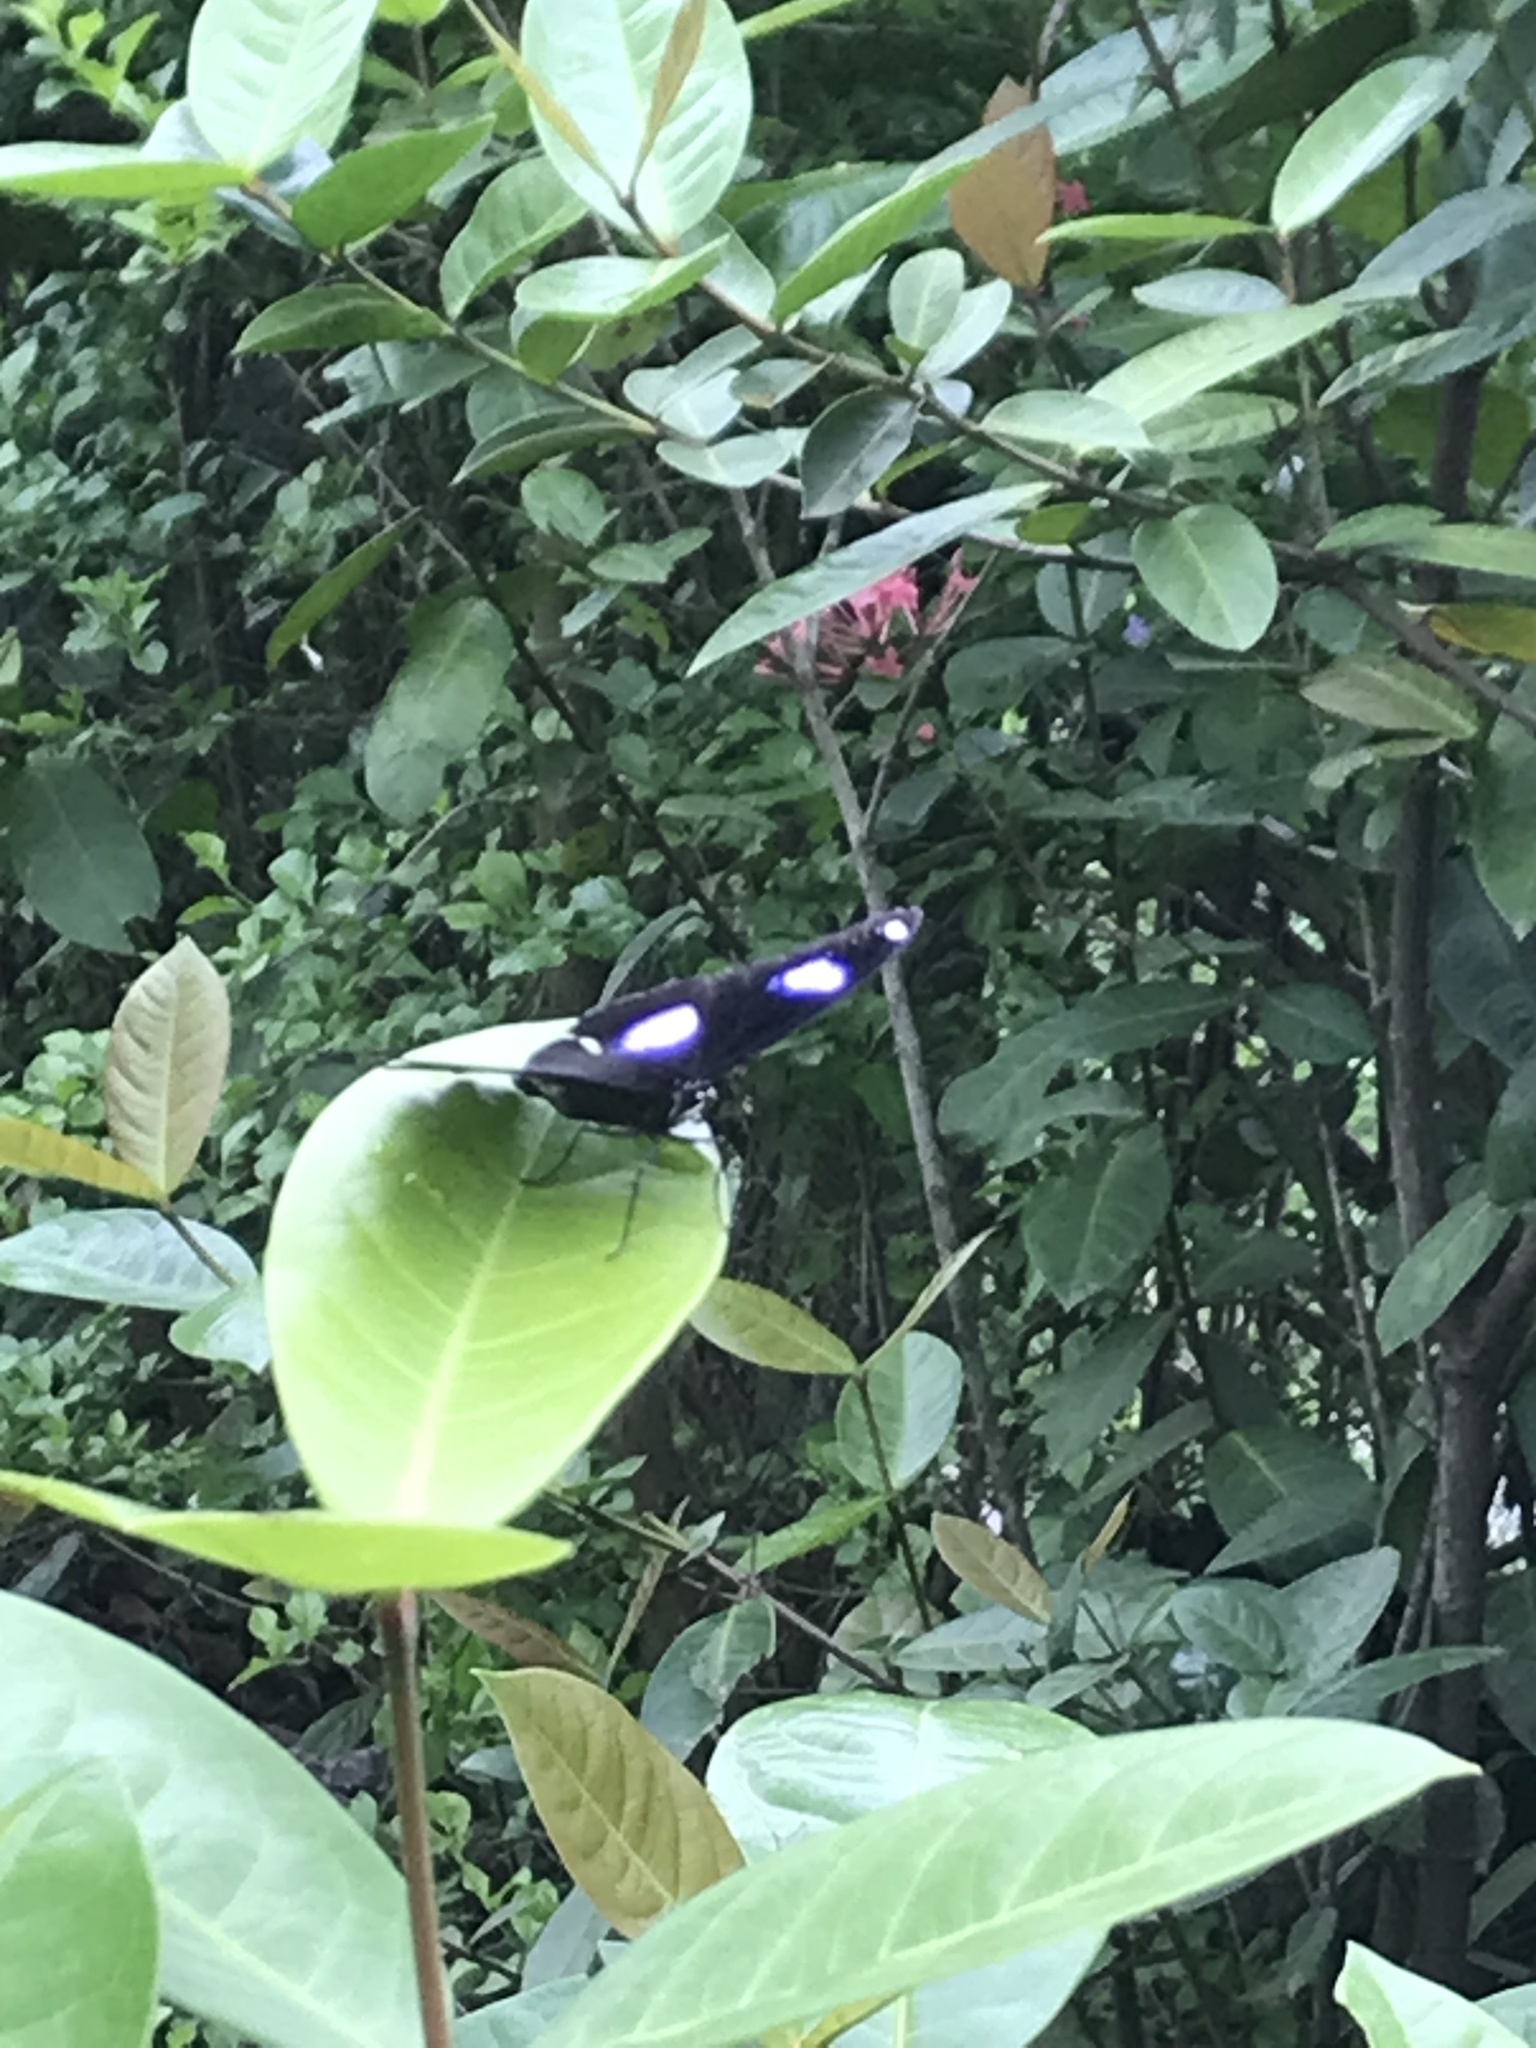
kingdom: Animalia
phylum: Arthropoda
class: Insecta
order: Lepidoptera
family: Nymphalidae
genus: Hypolimnas
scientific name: Hypolimnas bolina
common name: Great eggfly
